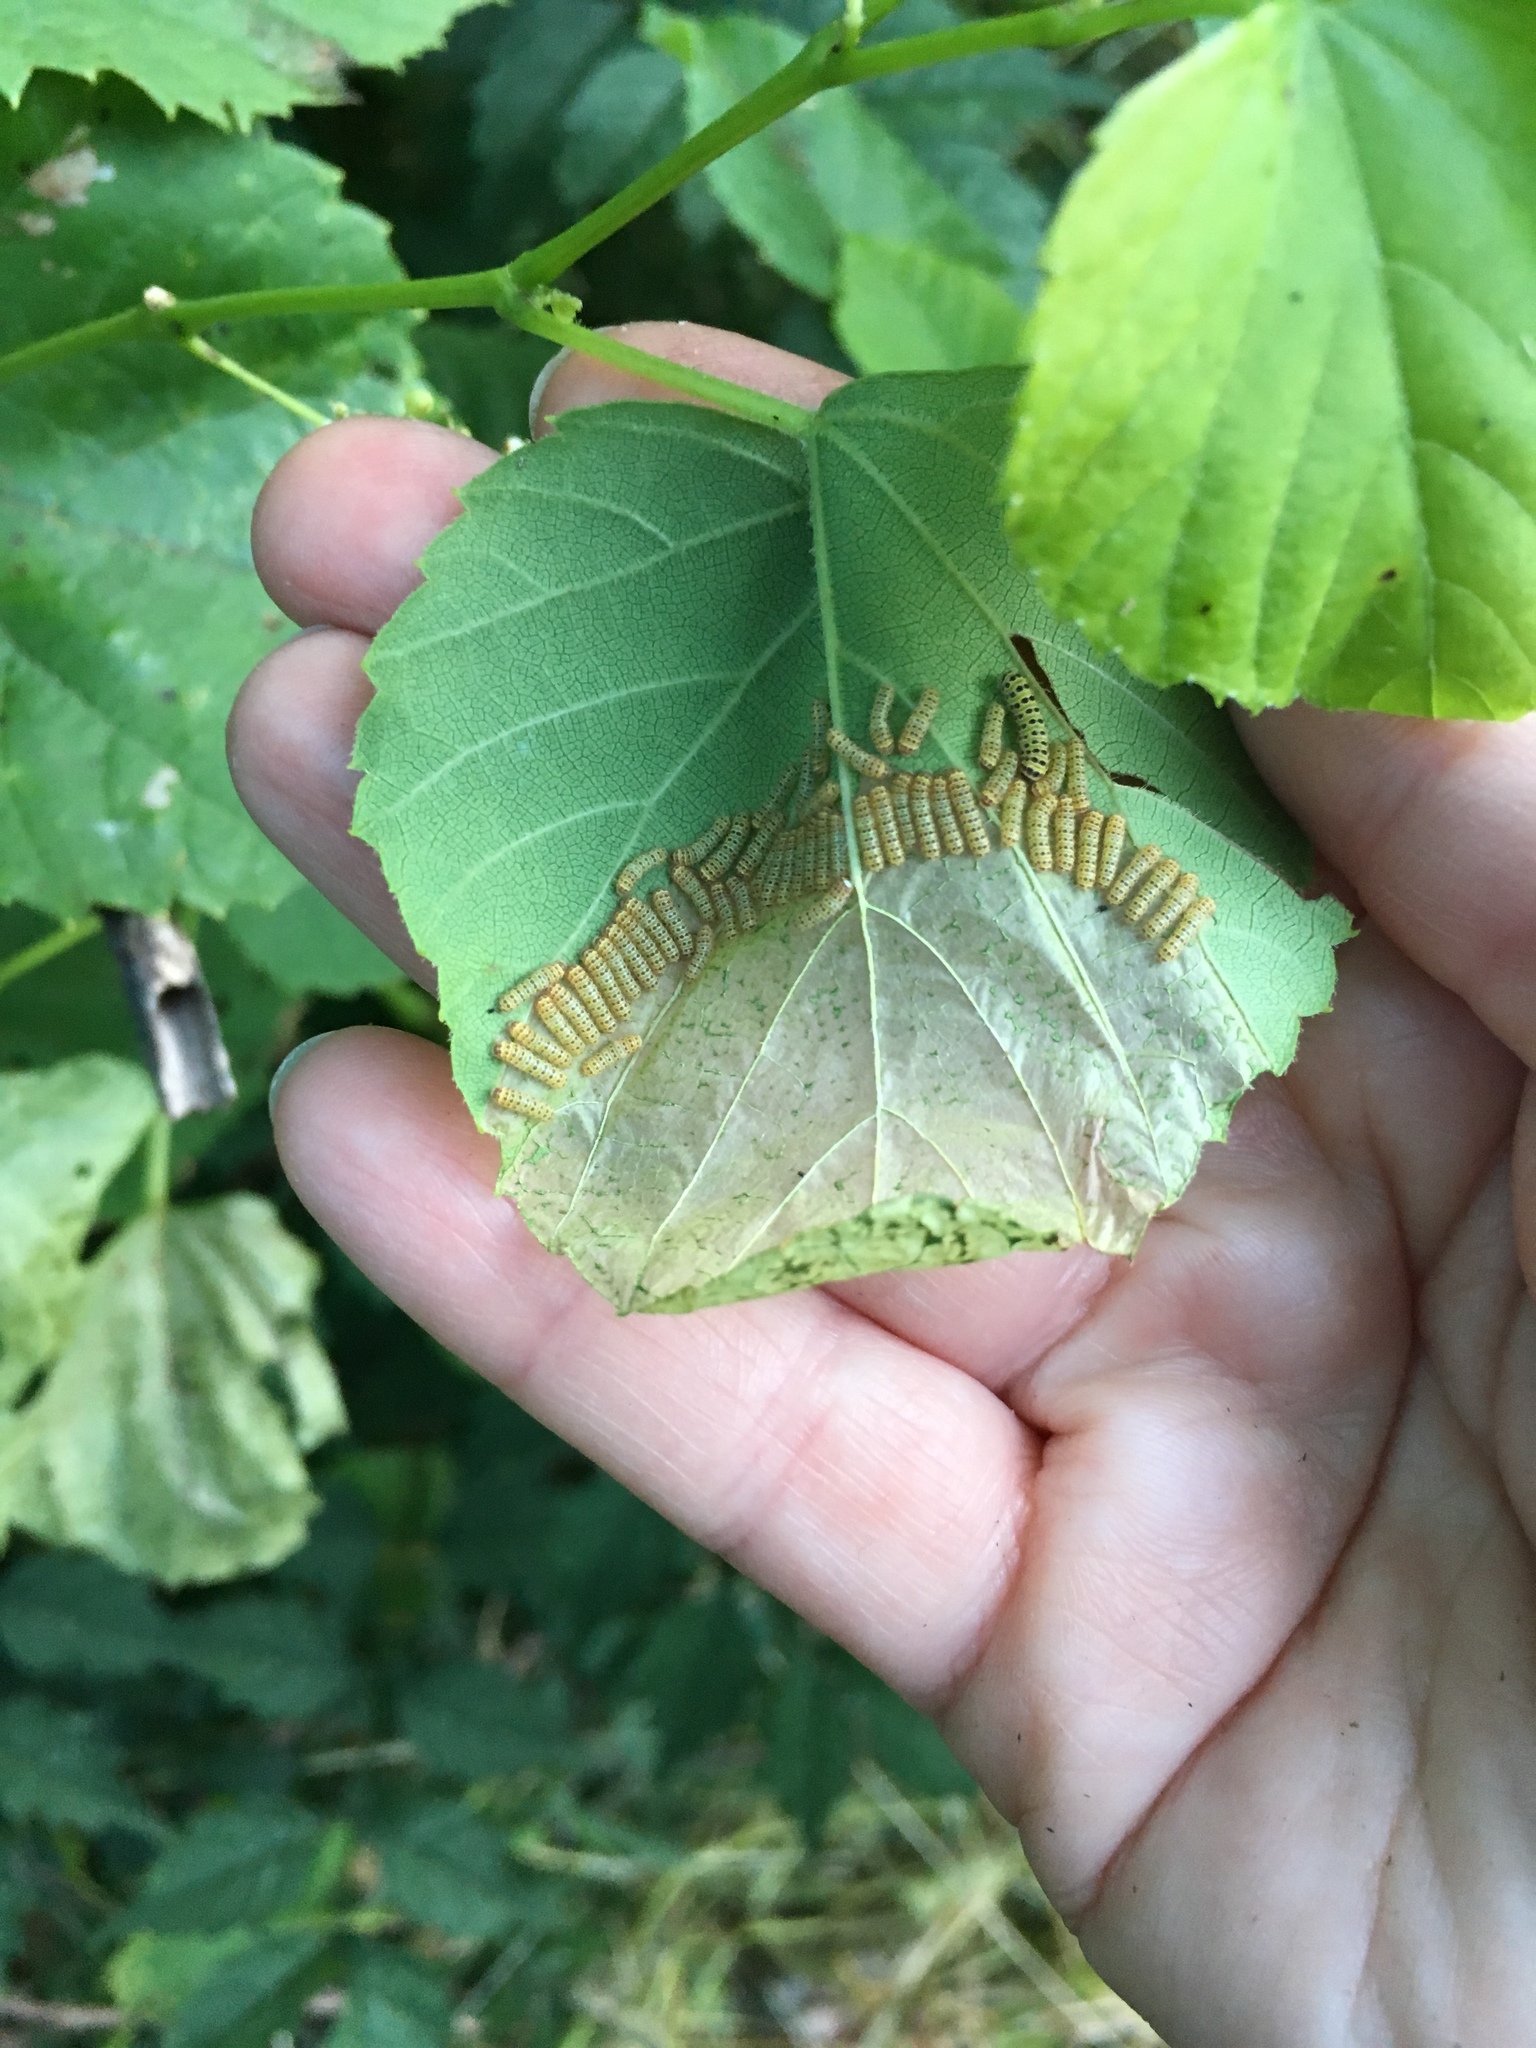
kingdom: Animalia
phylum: Arthropoda
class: Insecta
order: Lepidoptera
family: Zygaenidae
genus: Harrisina
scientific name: Harrisina americana
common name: Grapeleaf skeletonizer moth
